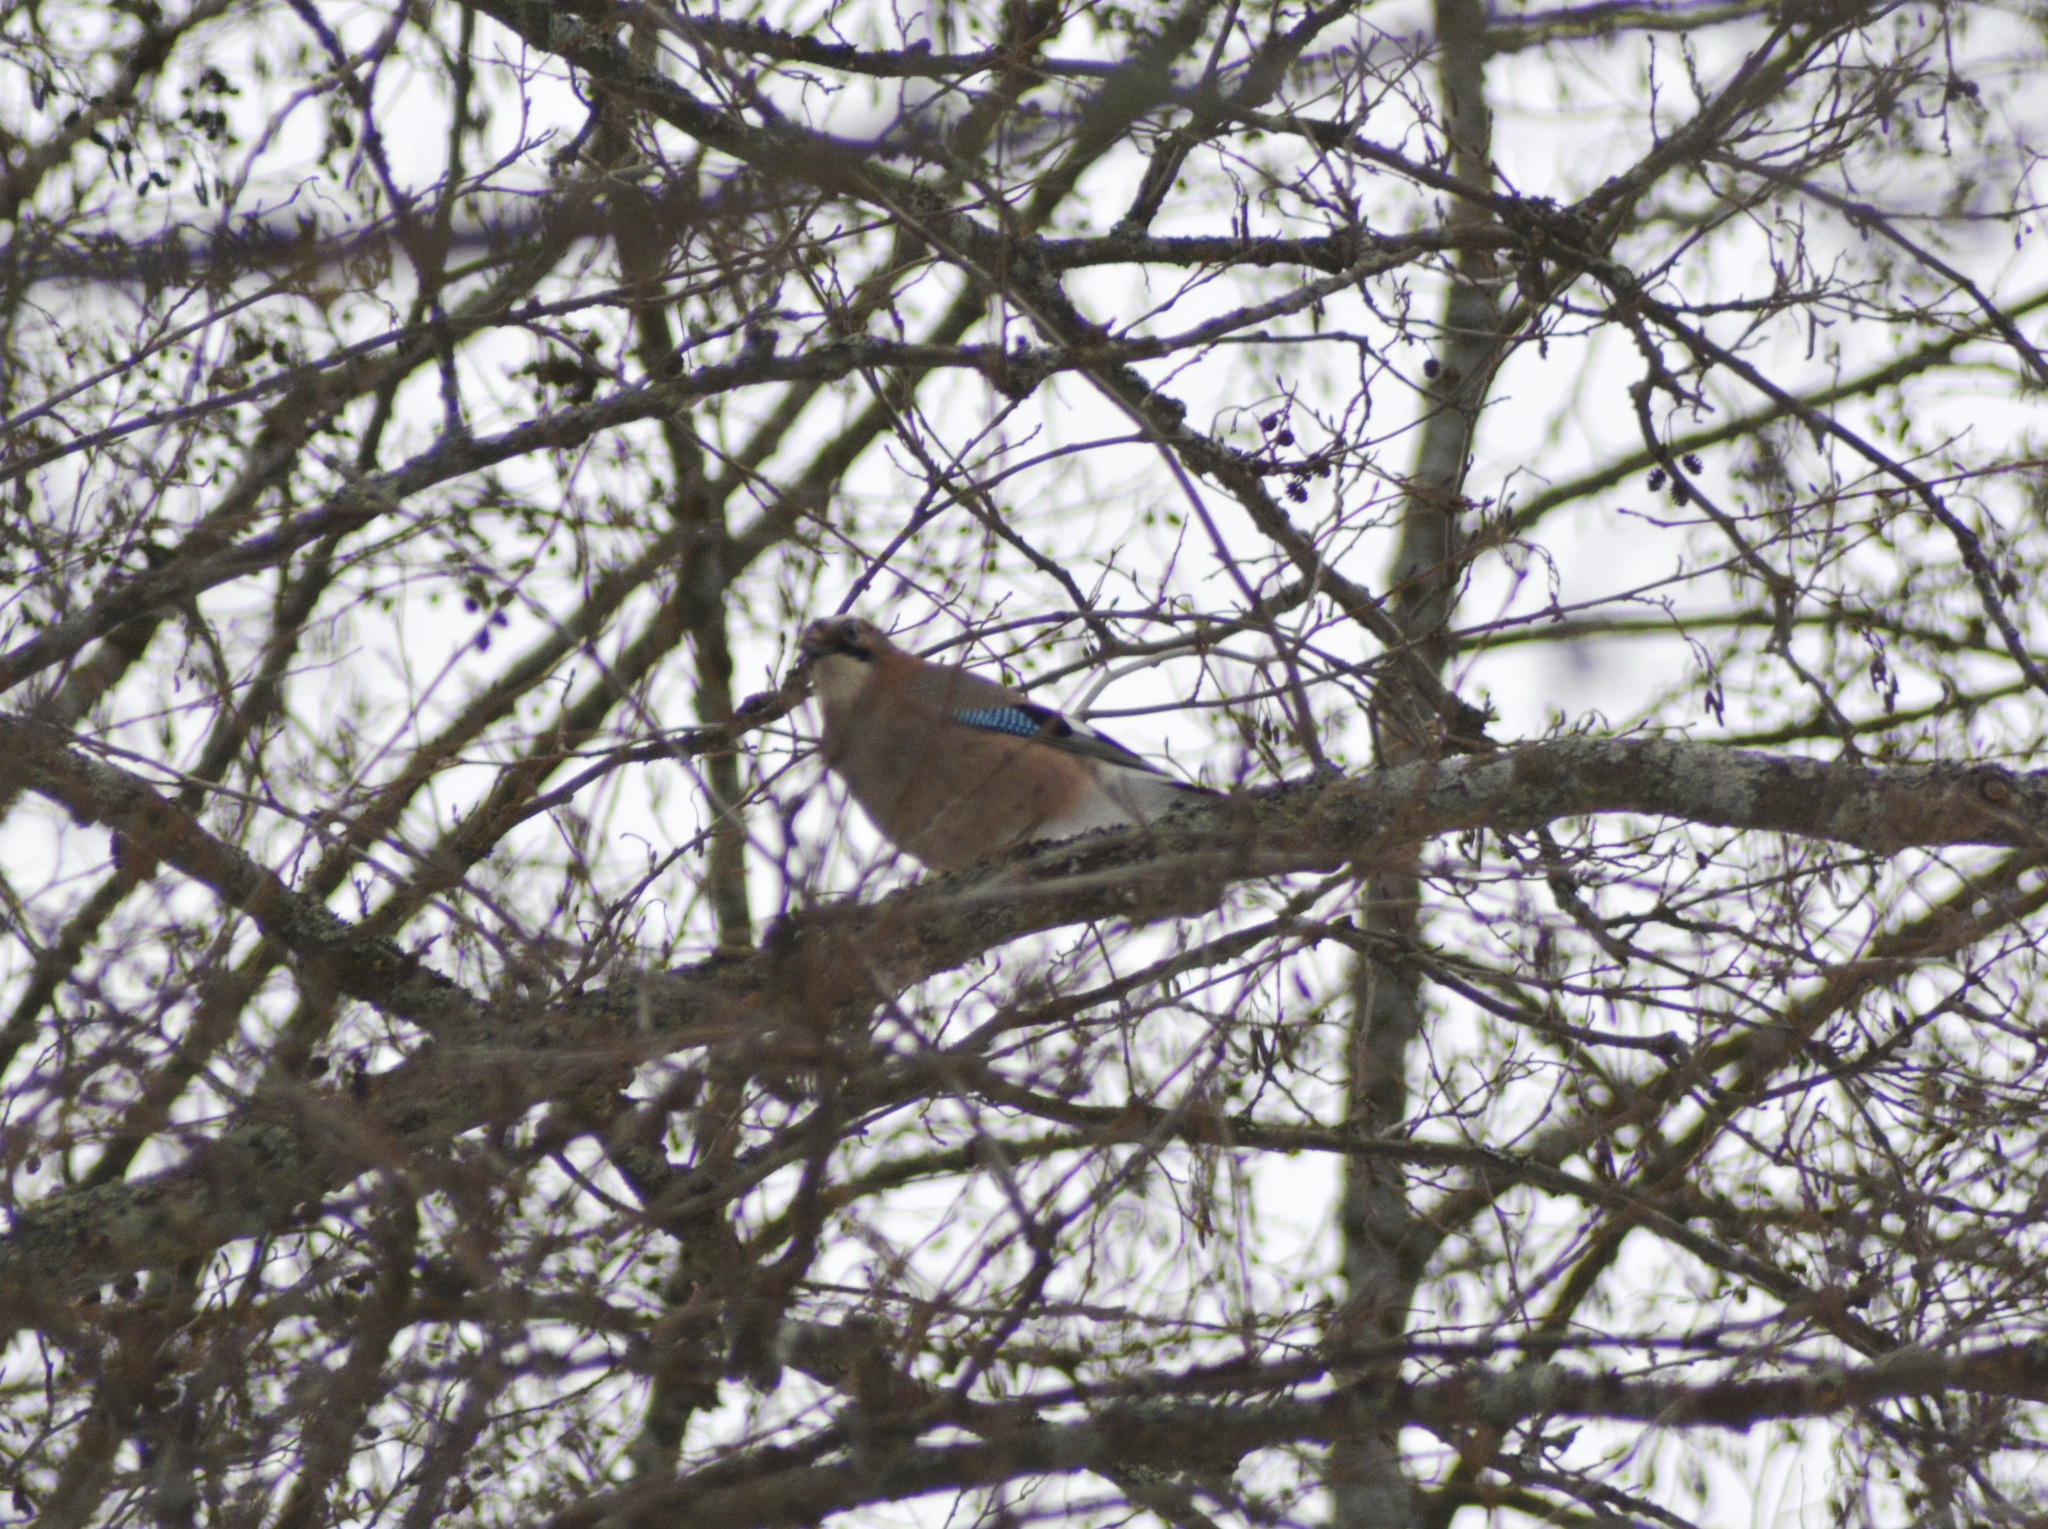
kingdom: Animalia
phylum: Chordata
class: Aves
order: Passeriformes
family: Corvidae
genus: Garrulus
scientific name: Garrulus glandarius
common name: Eurasian jay
